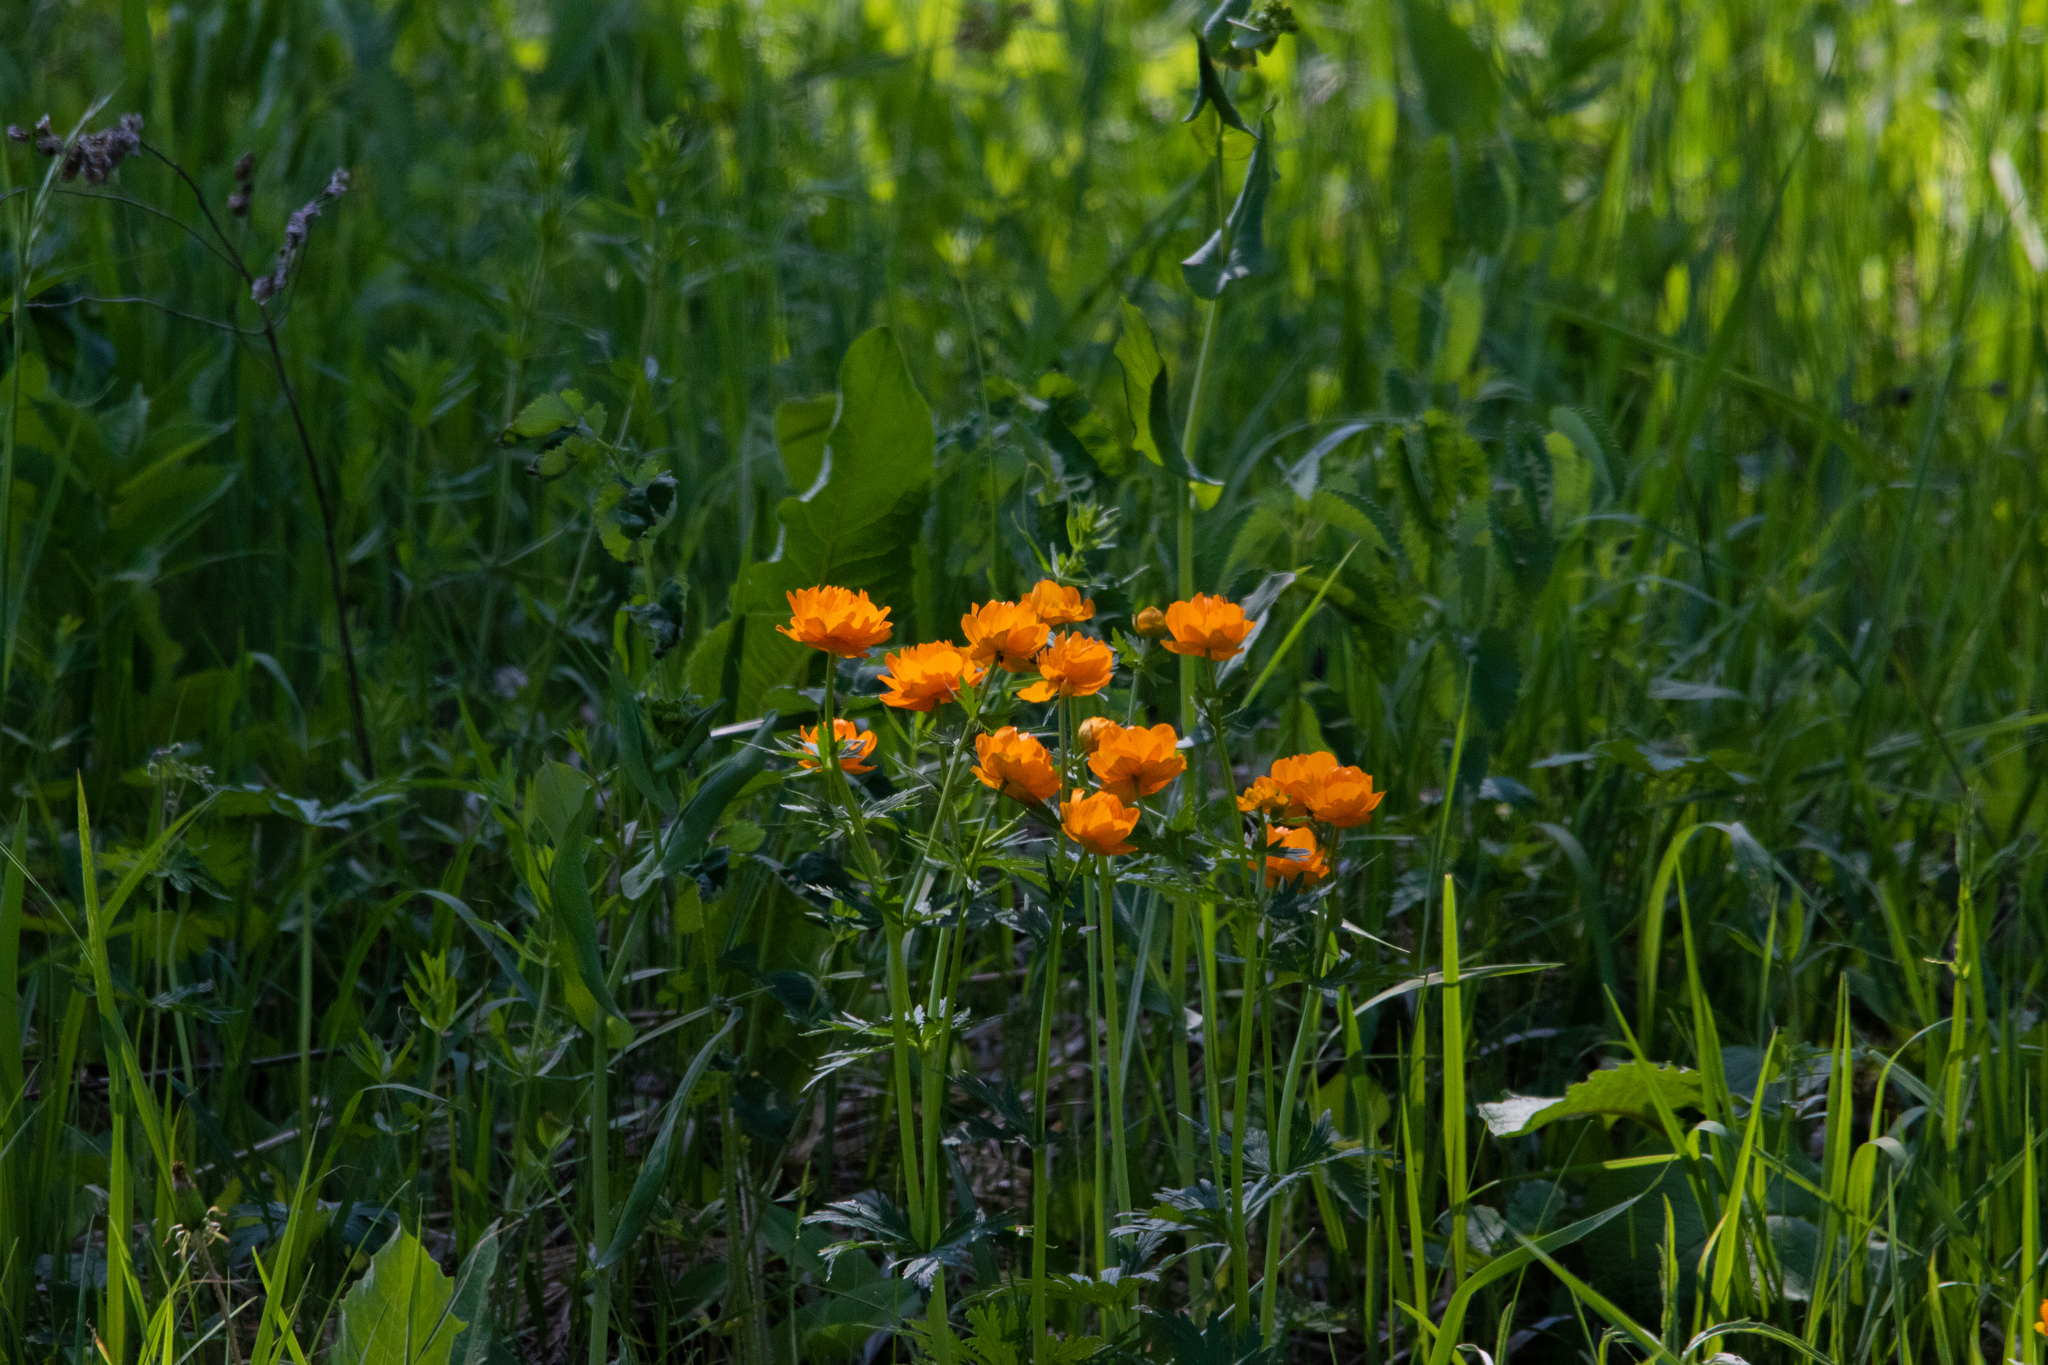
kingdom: Plantae
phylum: Tracheophyta
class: Magnoliopsida
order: Ranunculales
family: Ranunculaceae
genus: Trollius
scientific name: Trollius asiaticus
